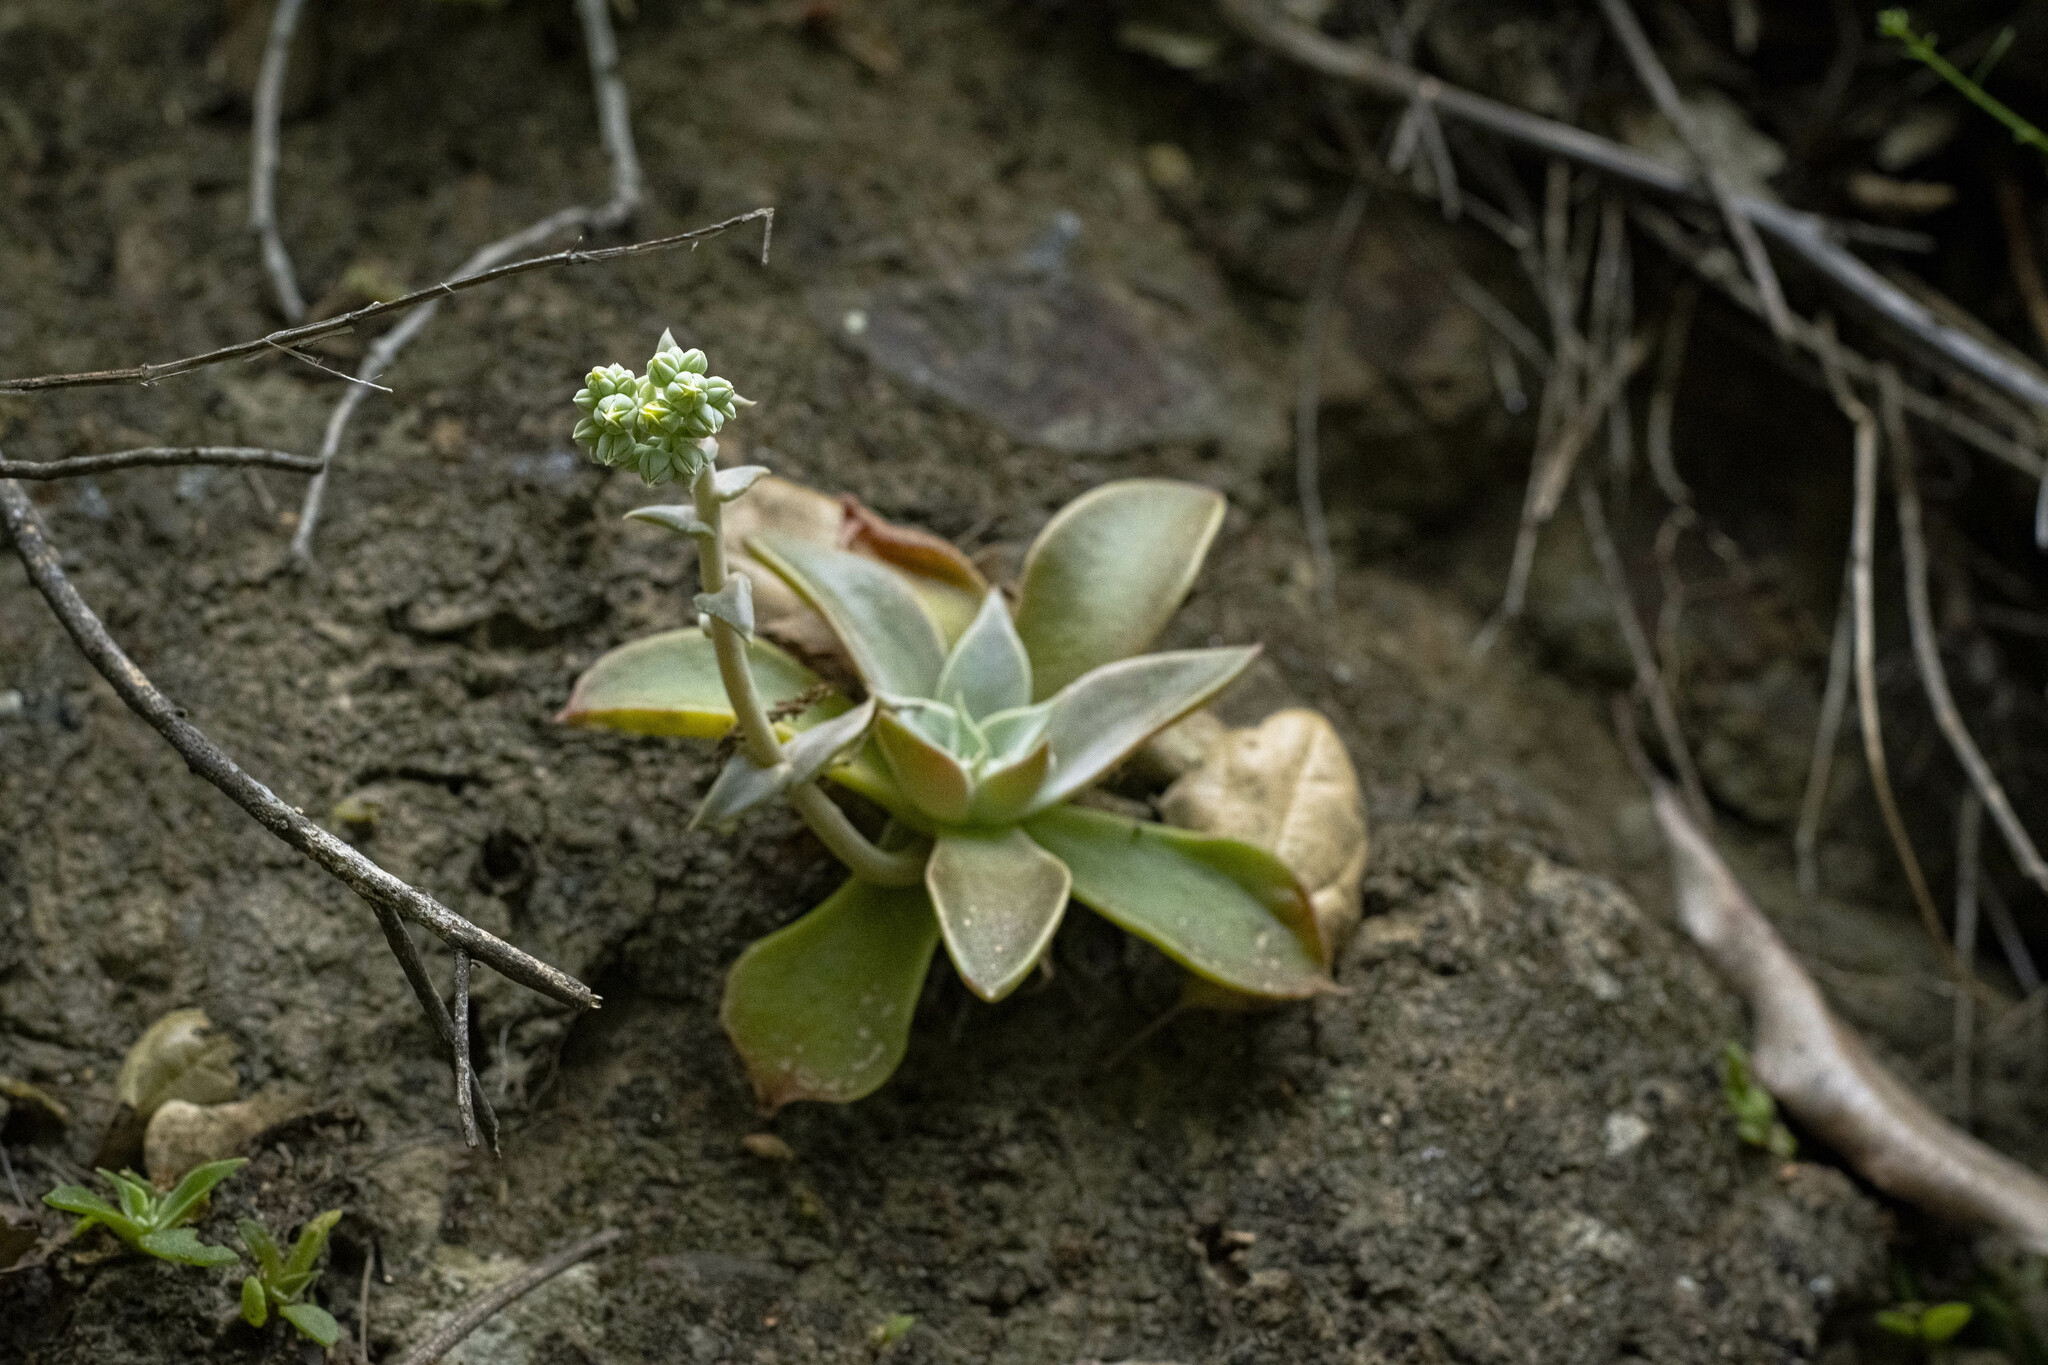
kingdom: Plantae
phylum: Tracheophyta
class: Magnoliopsida
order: Saxifragales
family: Crassulaceae
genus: Dudleya
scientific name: Dudleya cymosa
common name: Canyon dudleya
